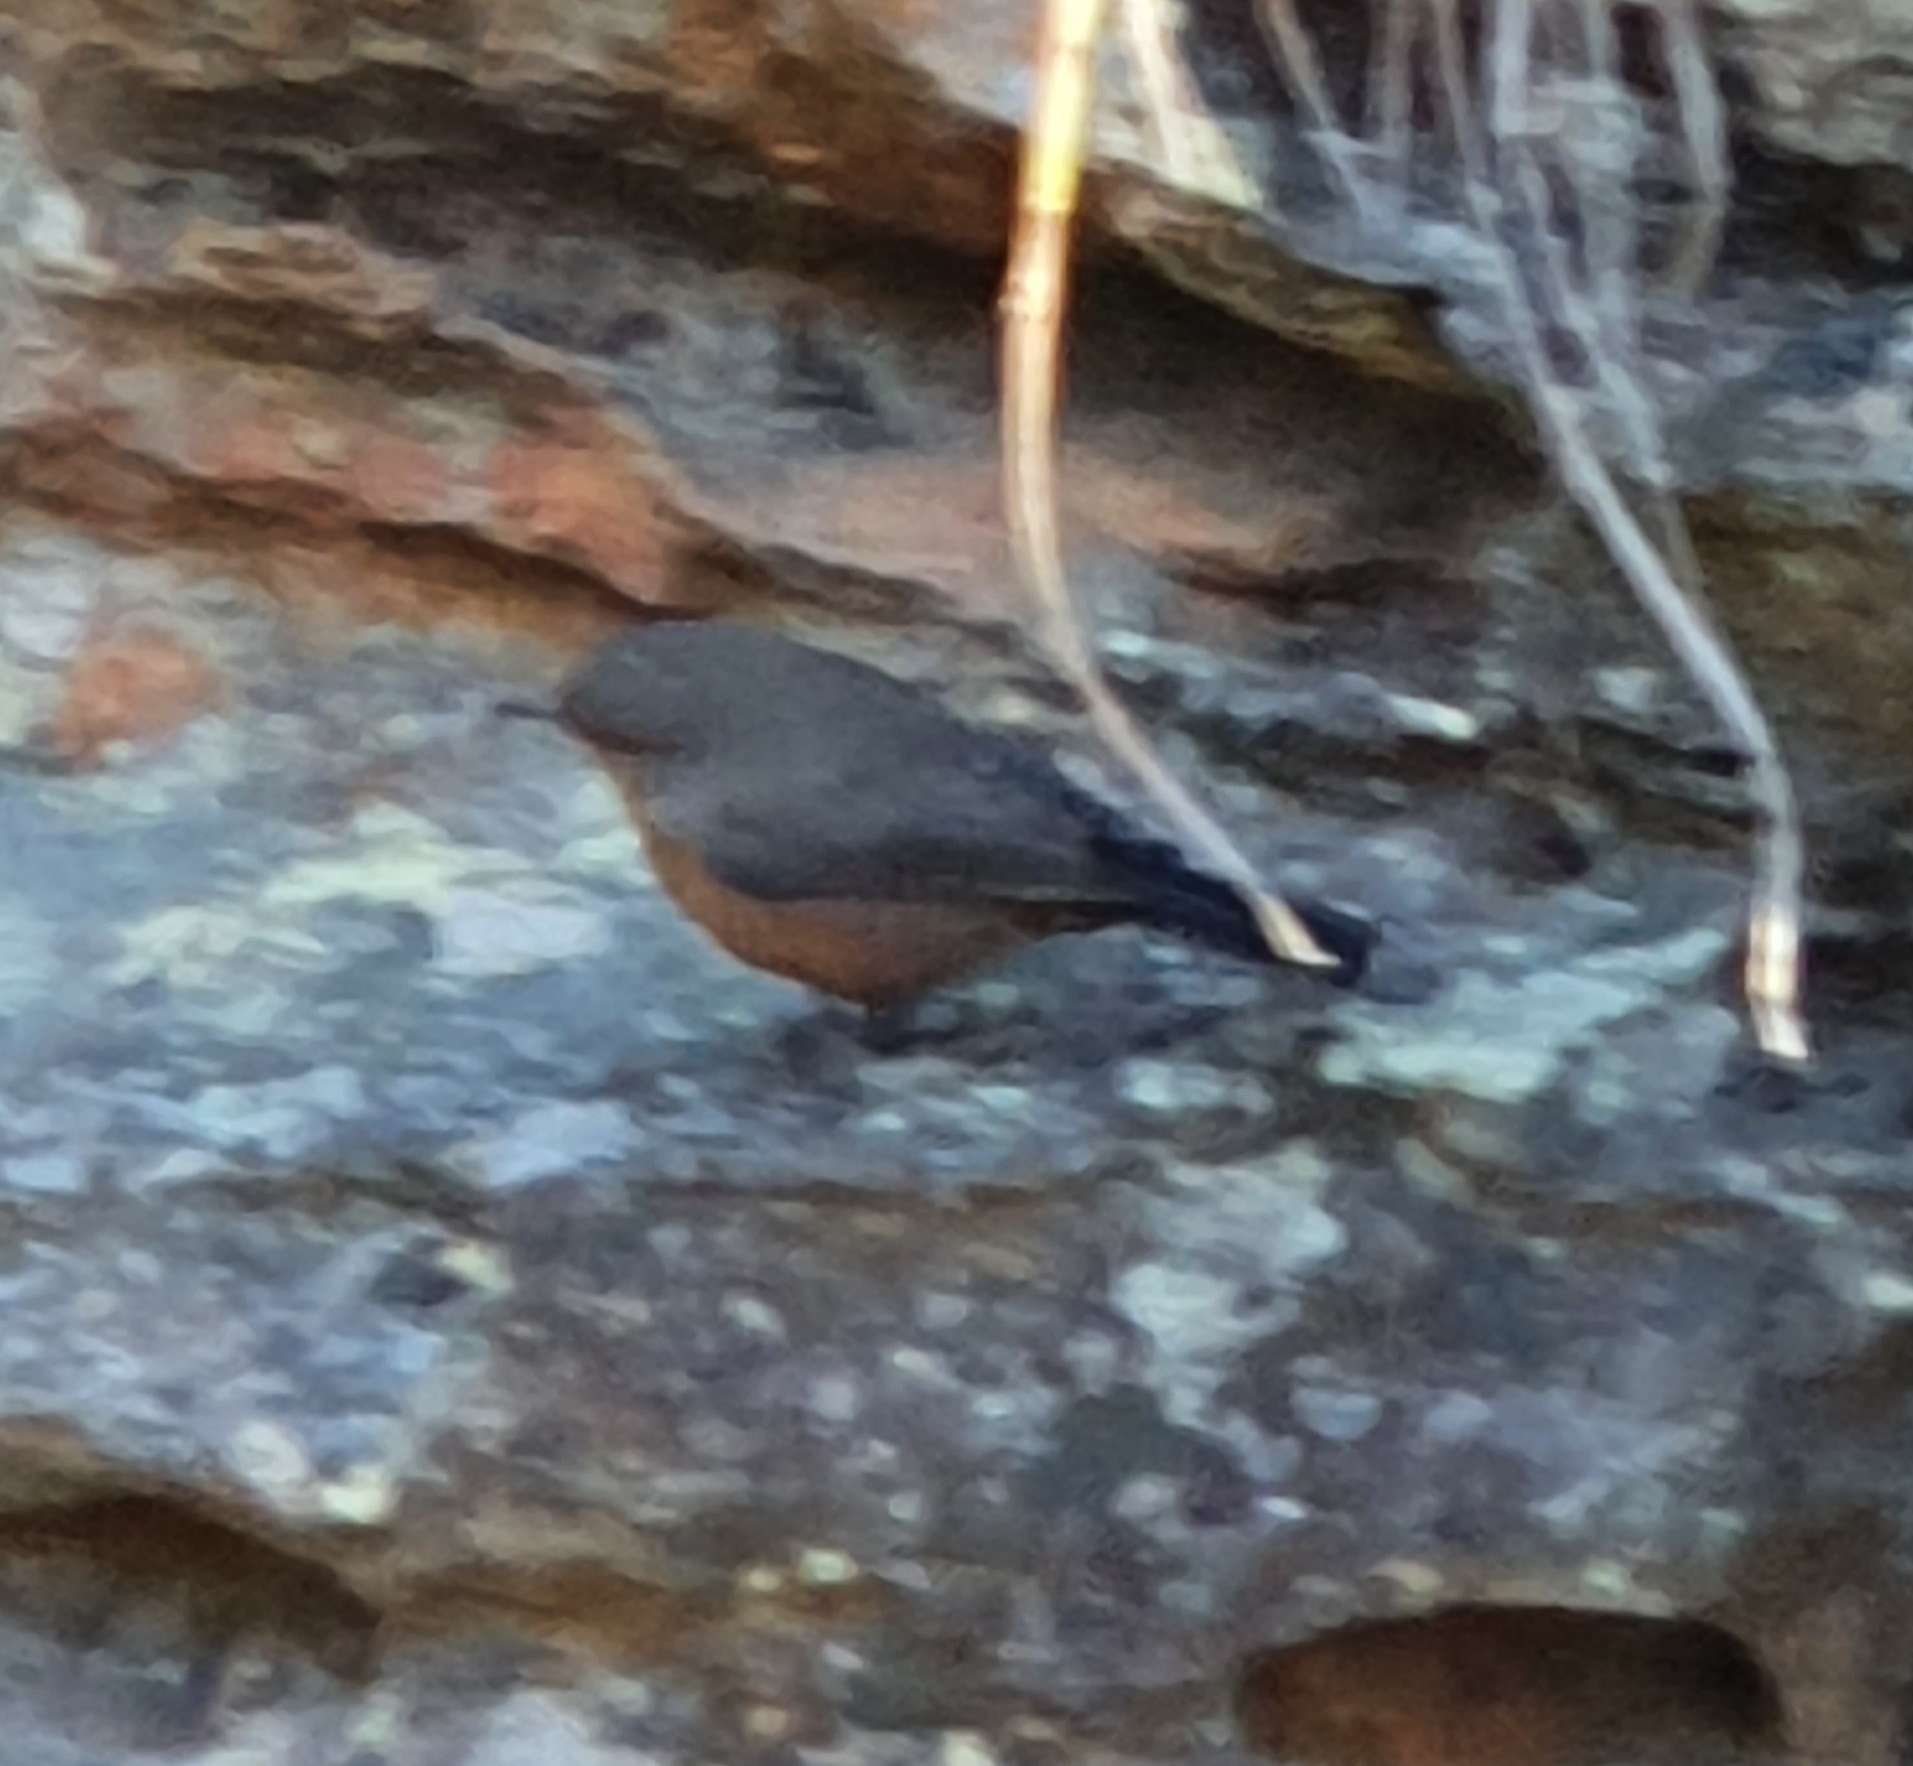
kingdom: Animalia
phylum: Chordata
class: Aves
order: Passeriformes
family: Acanthizidae
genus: Origma
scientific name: Origma solitaria
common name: Rockwarbler
